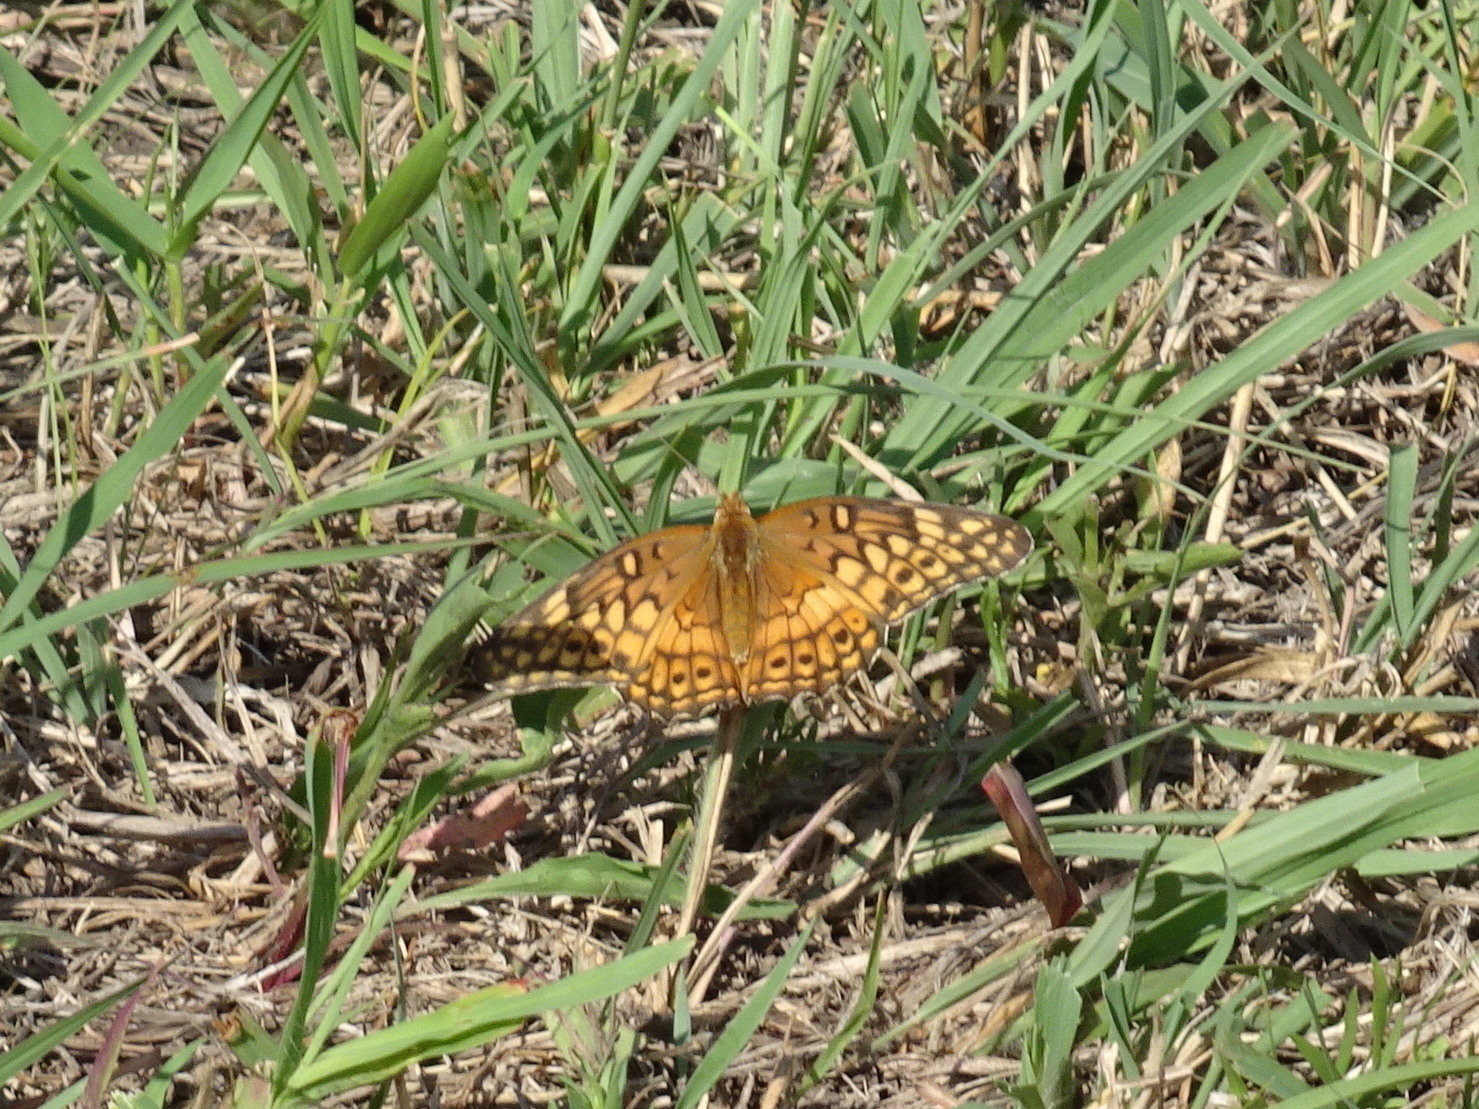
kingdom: Animalia
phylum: Arthropoda
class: Insecta
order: Lepidoptera
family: Nymphalidae
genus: Euptoieta
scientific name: Euptoieta claudia
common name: Variegated fritillary
